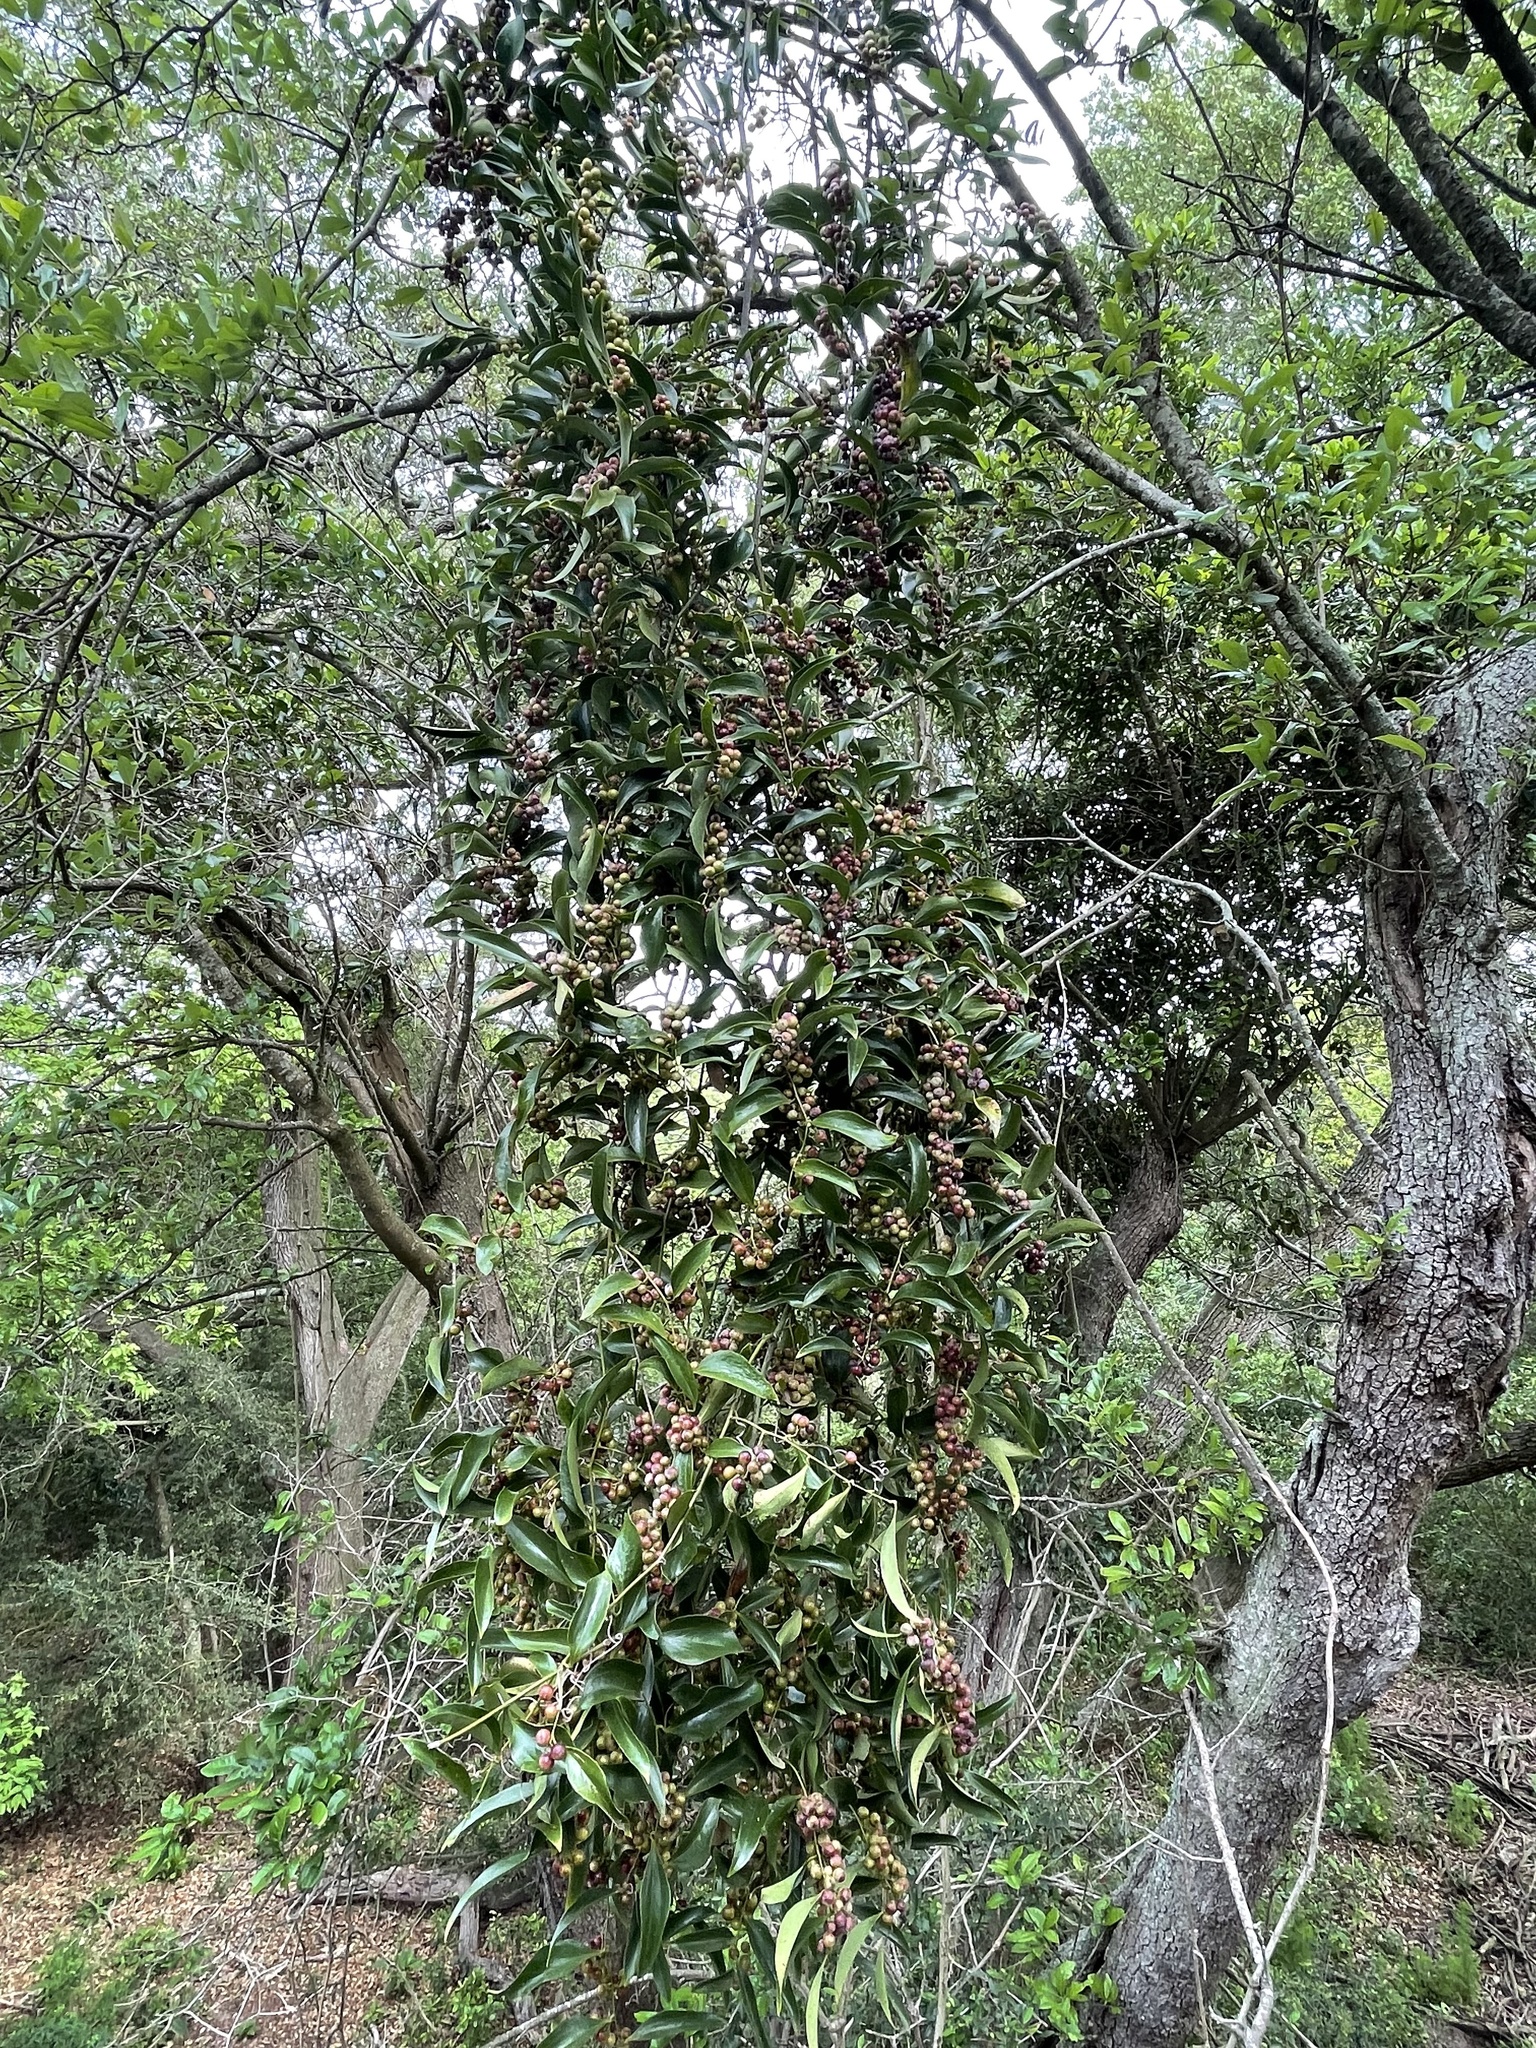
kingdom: Plantae
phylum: Tracheophyta
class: Liliopsida
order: Liliales
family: Smilacaceae
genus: Smilax
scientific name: Smilax maritima
